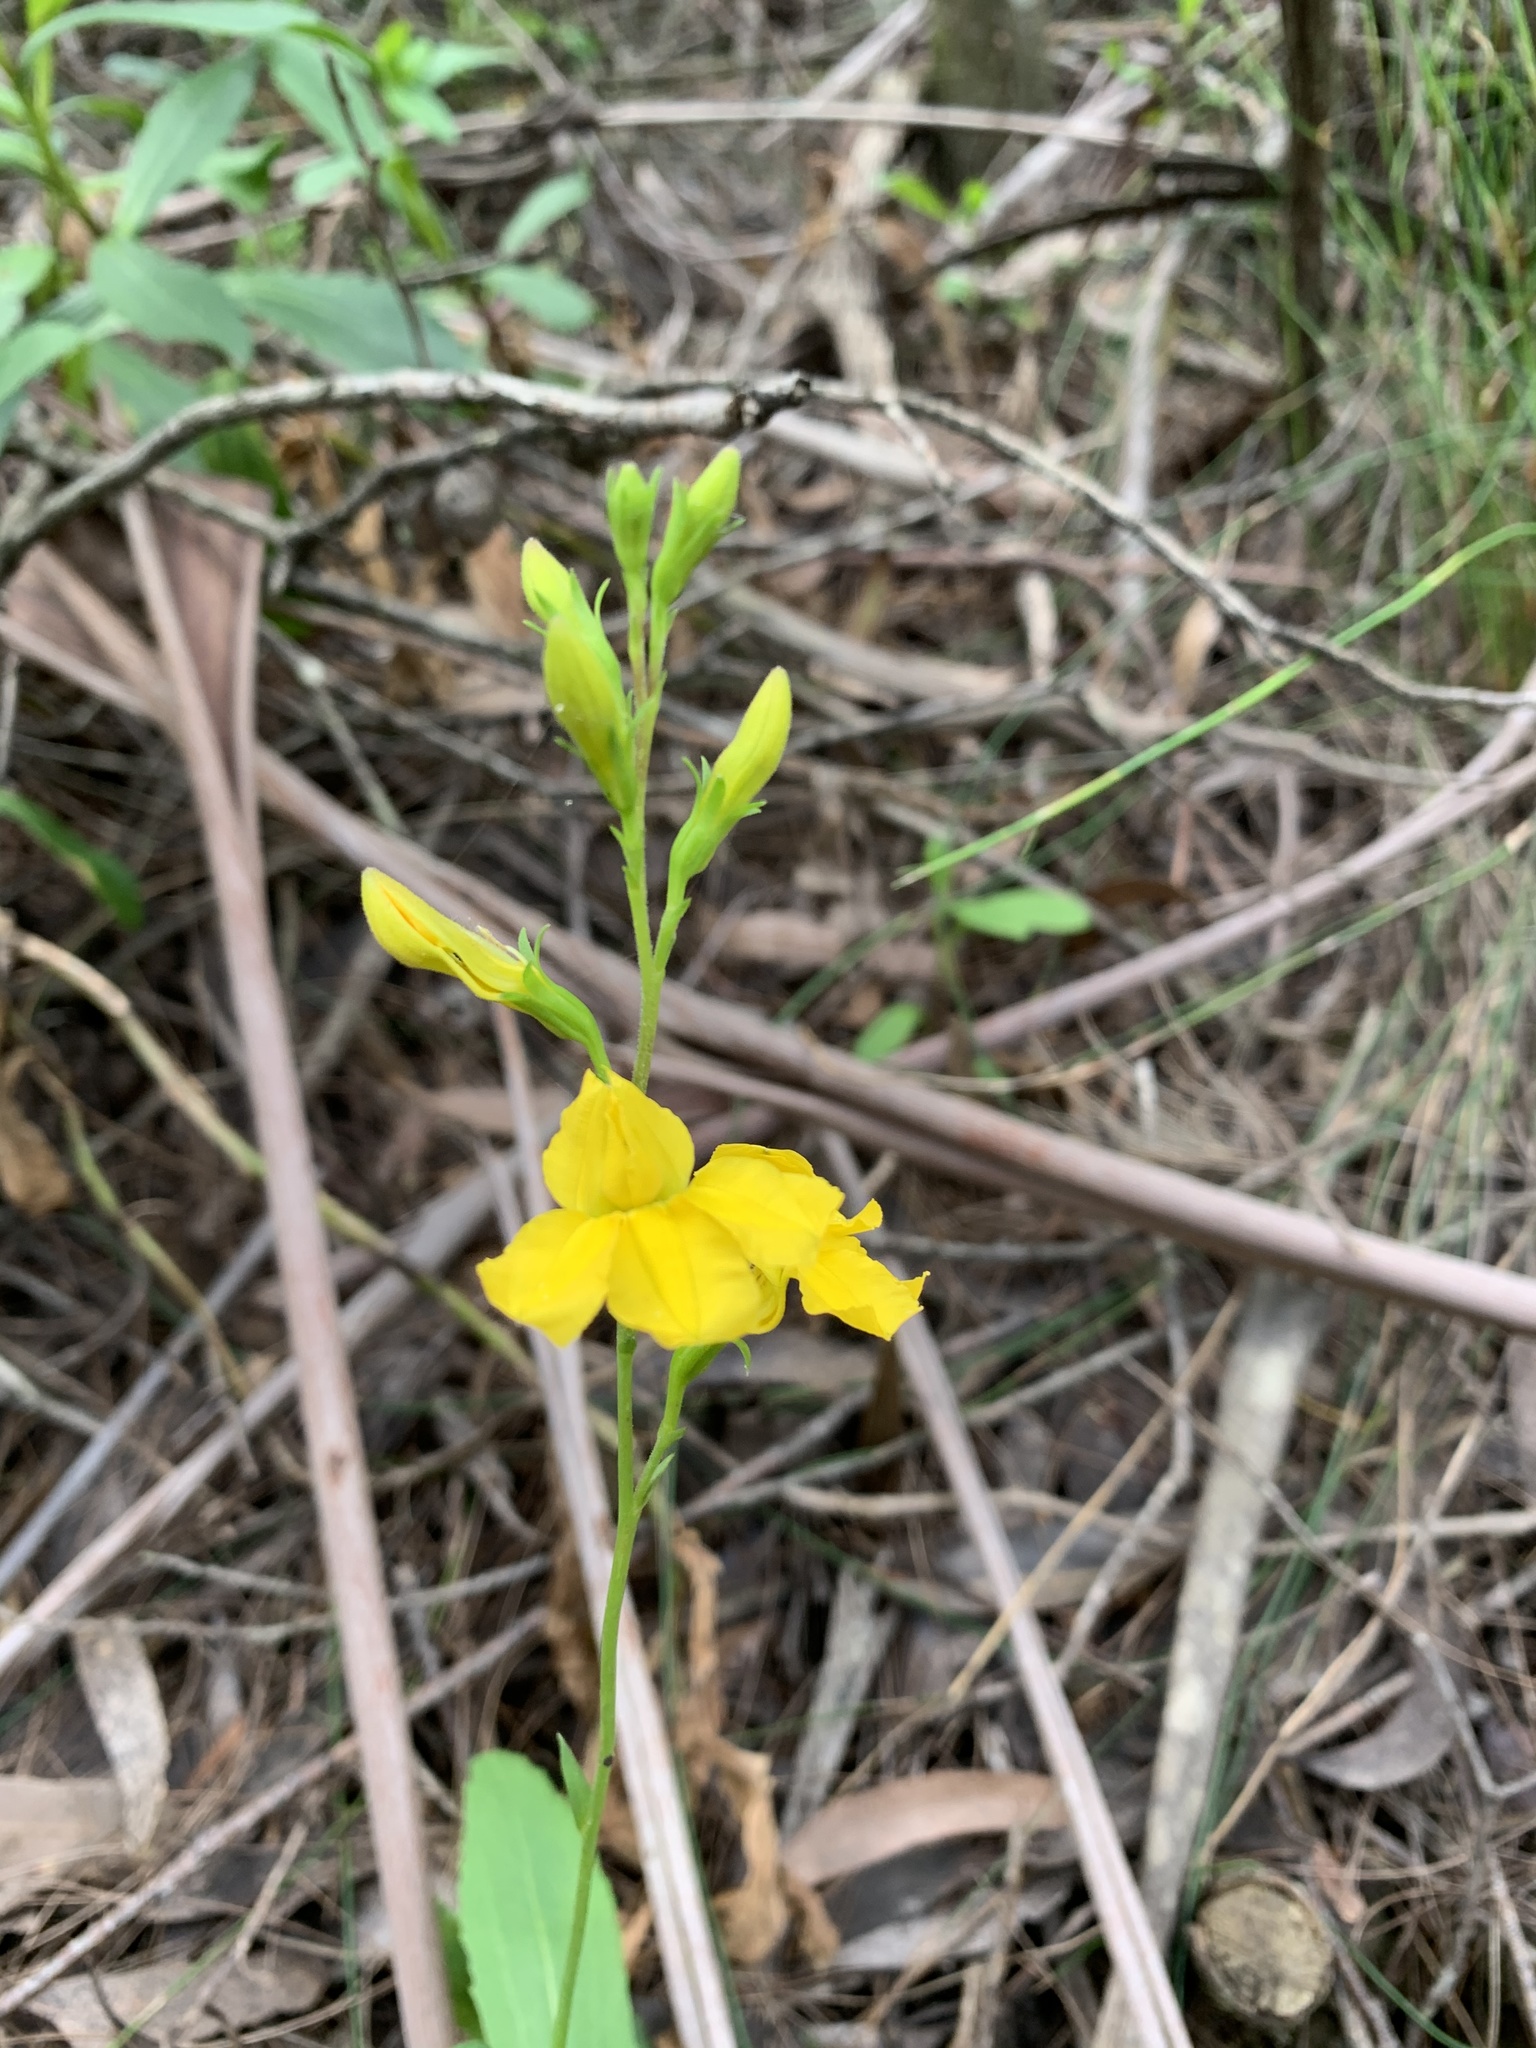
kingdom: Plantae
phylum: Tracheophyta
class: Magnoliopsida
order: Asterales
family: Goodeniaceae
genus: Goodenia
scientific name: Goodenia decurrens
